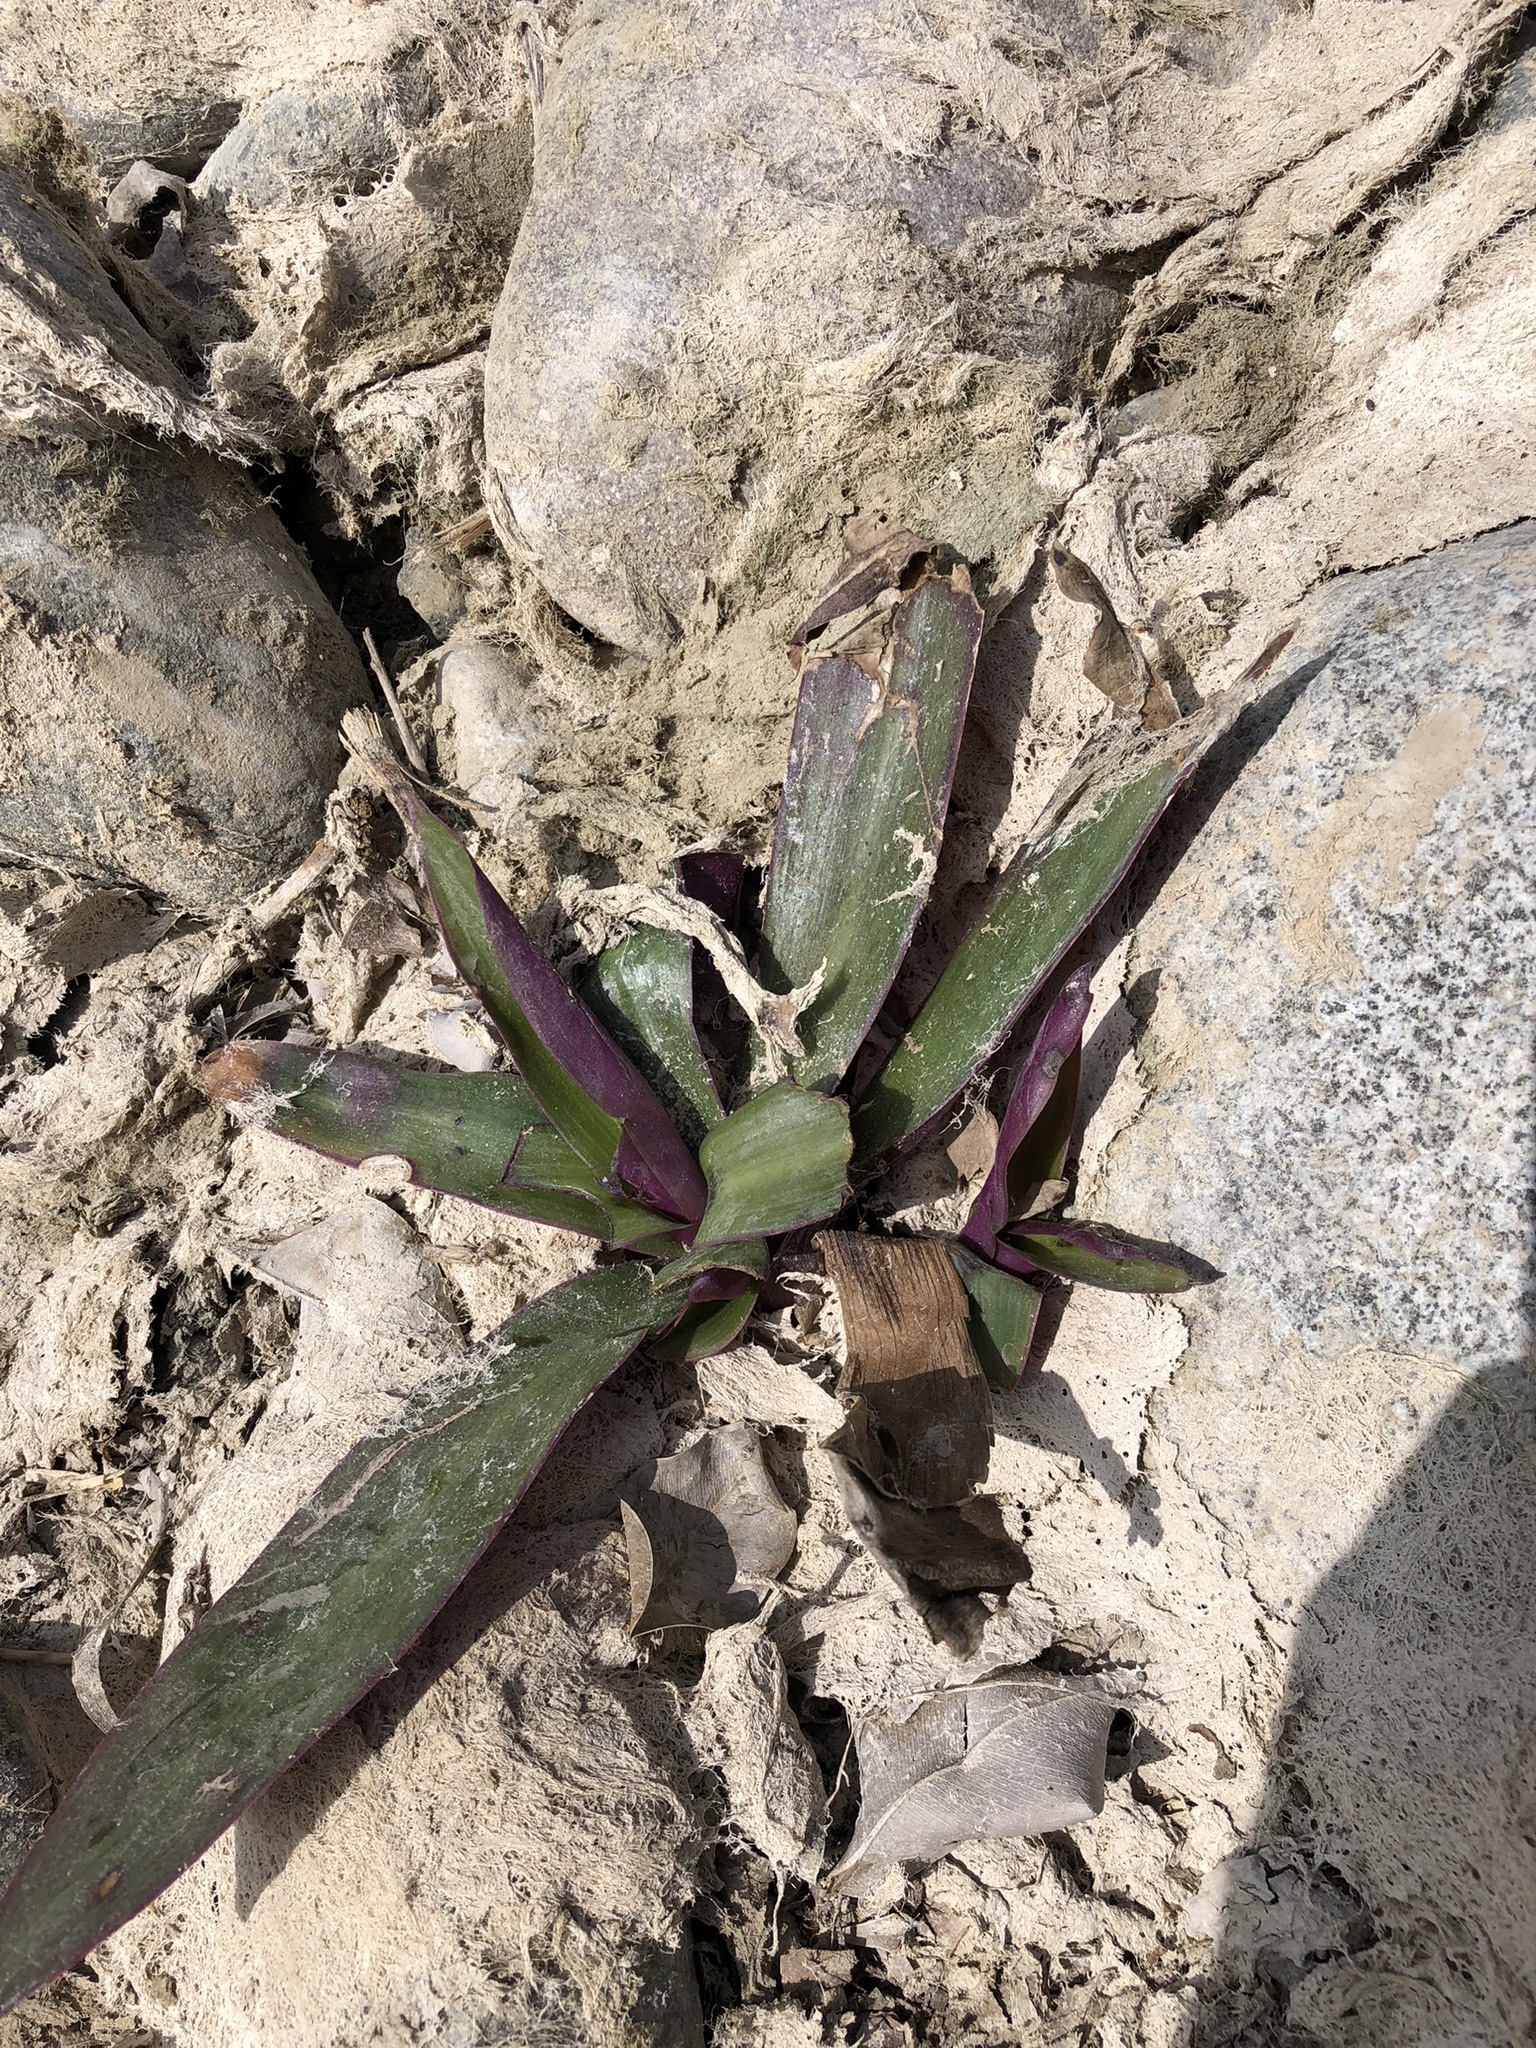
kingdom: Plantae
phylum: Tracheophyta
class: Liliopsida
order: Commelinales
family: Commelinaceae
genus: Tradescantia
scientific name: Tradescantia spathacea
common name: Boatlily
